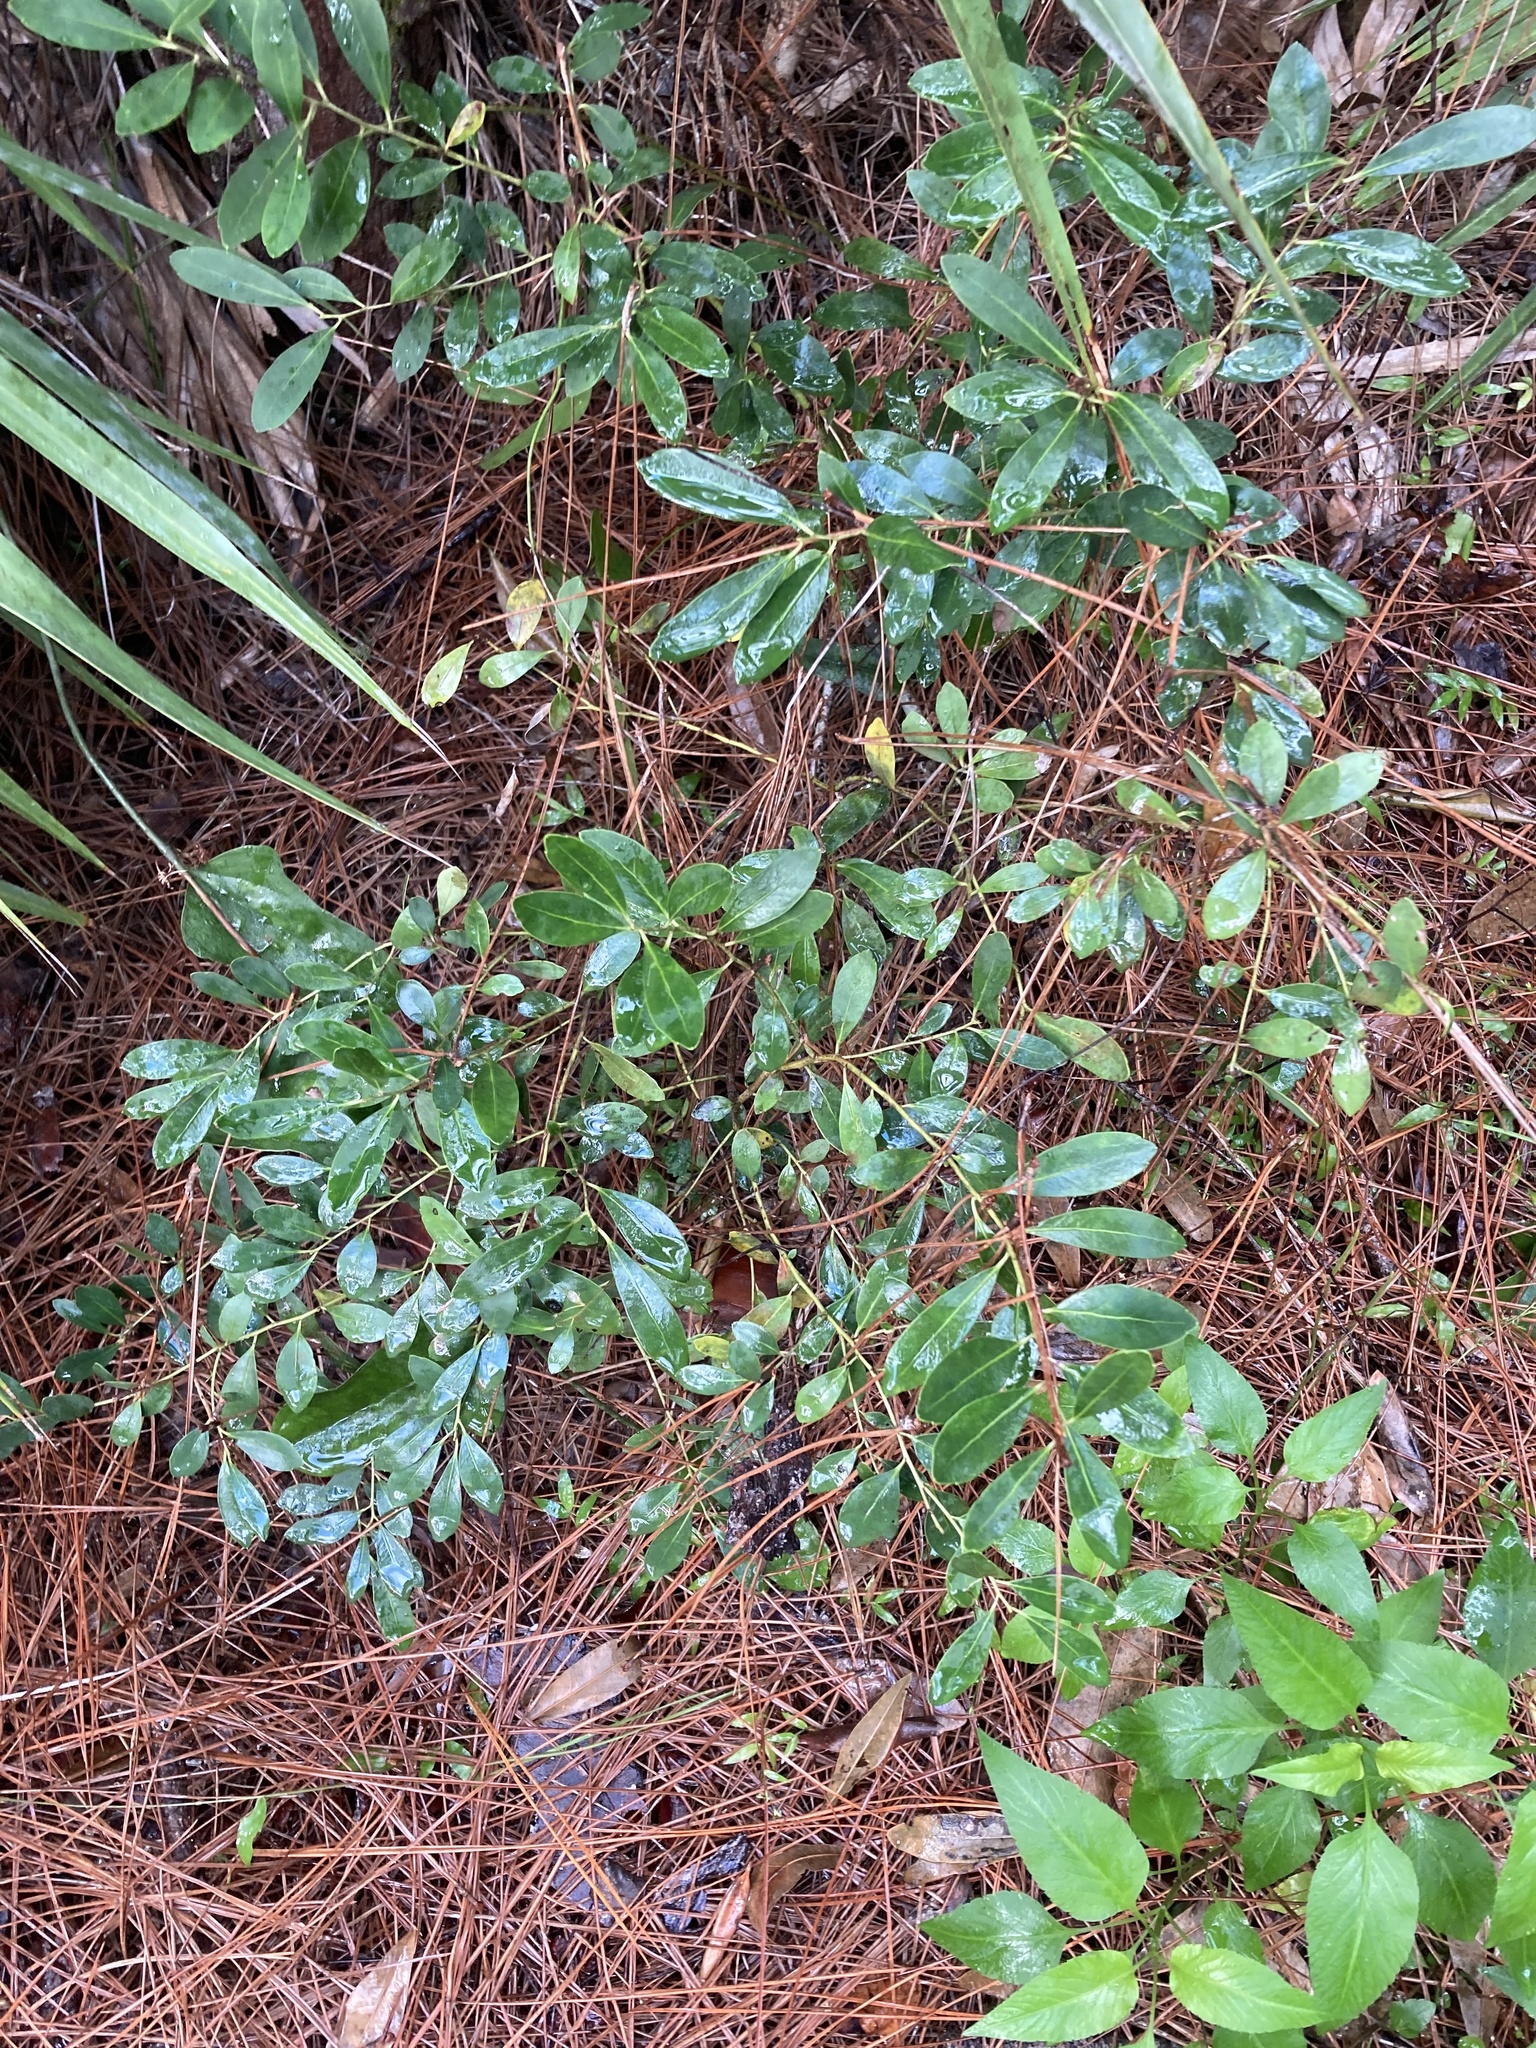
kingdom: Plantae
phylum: Tracheophyta
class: Magnoliopsida
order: Aquifoliales
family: Aquifoliaceae
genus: Ilex
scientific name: Ilex glabra
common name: Bitter gallberry
